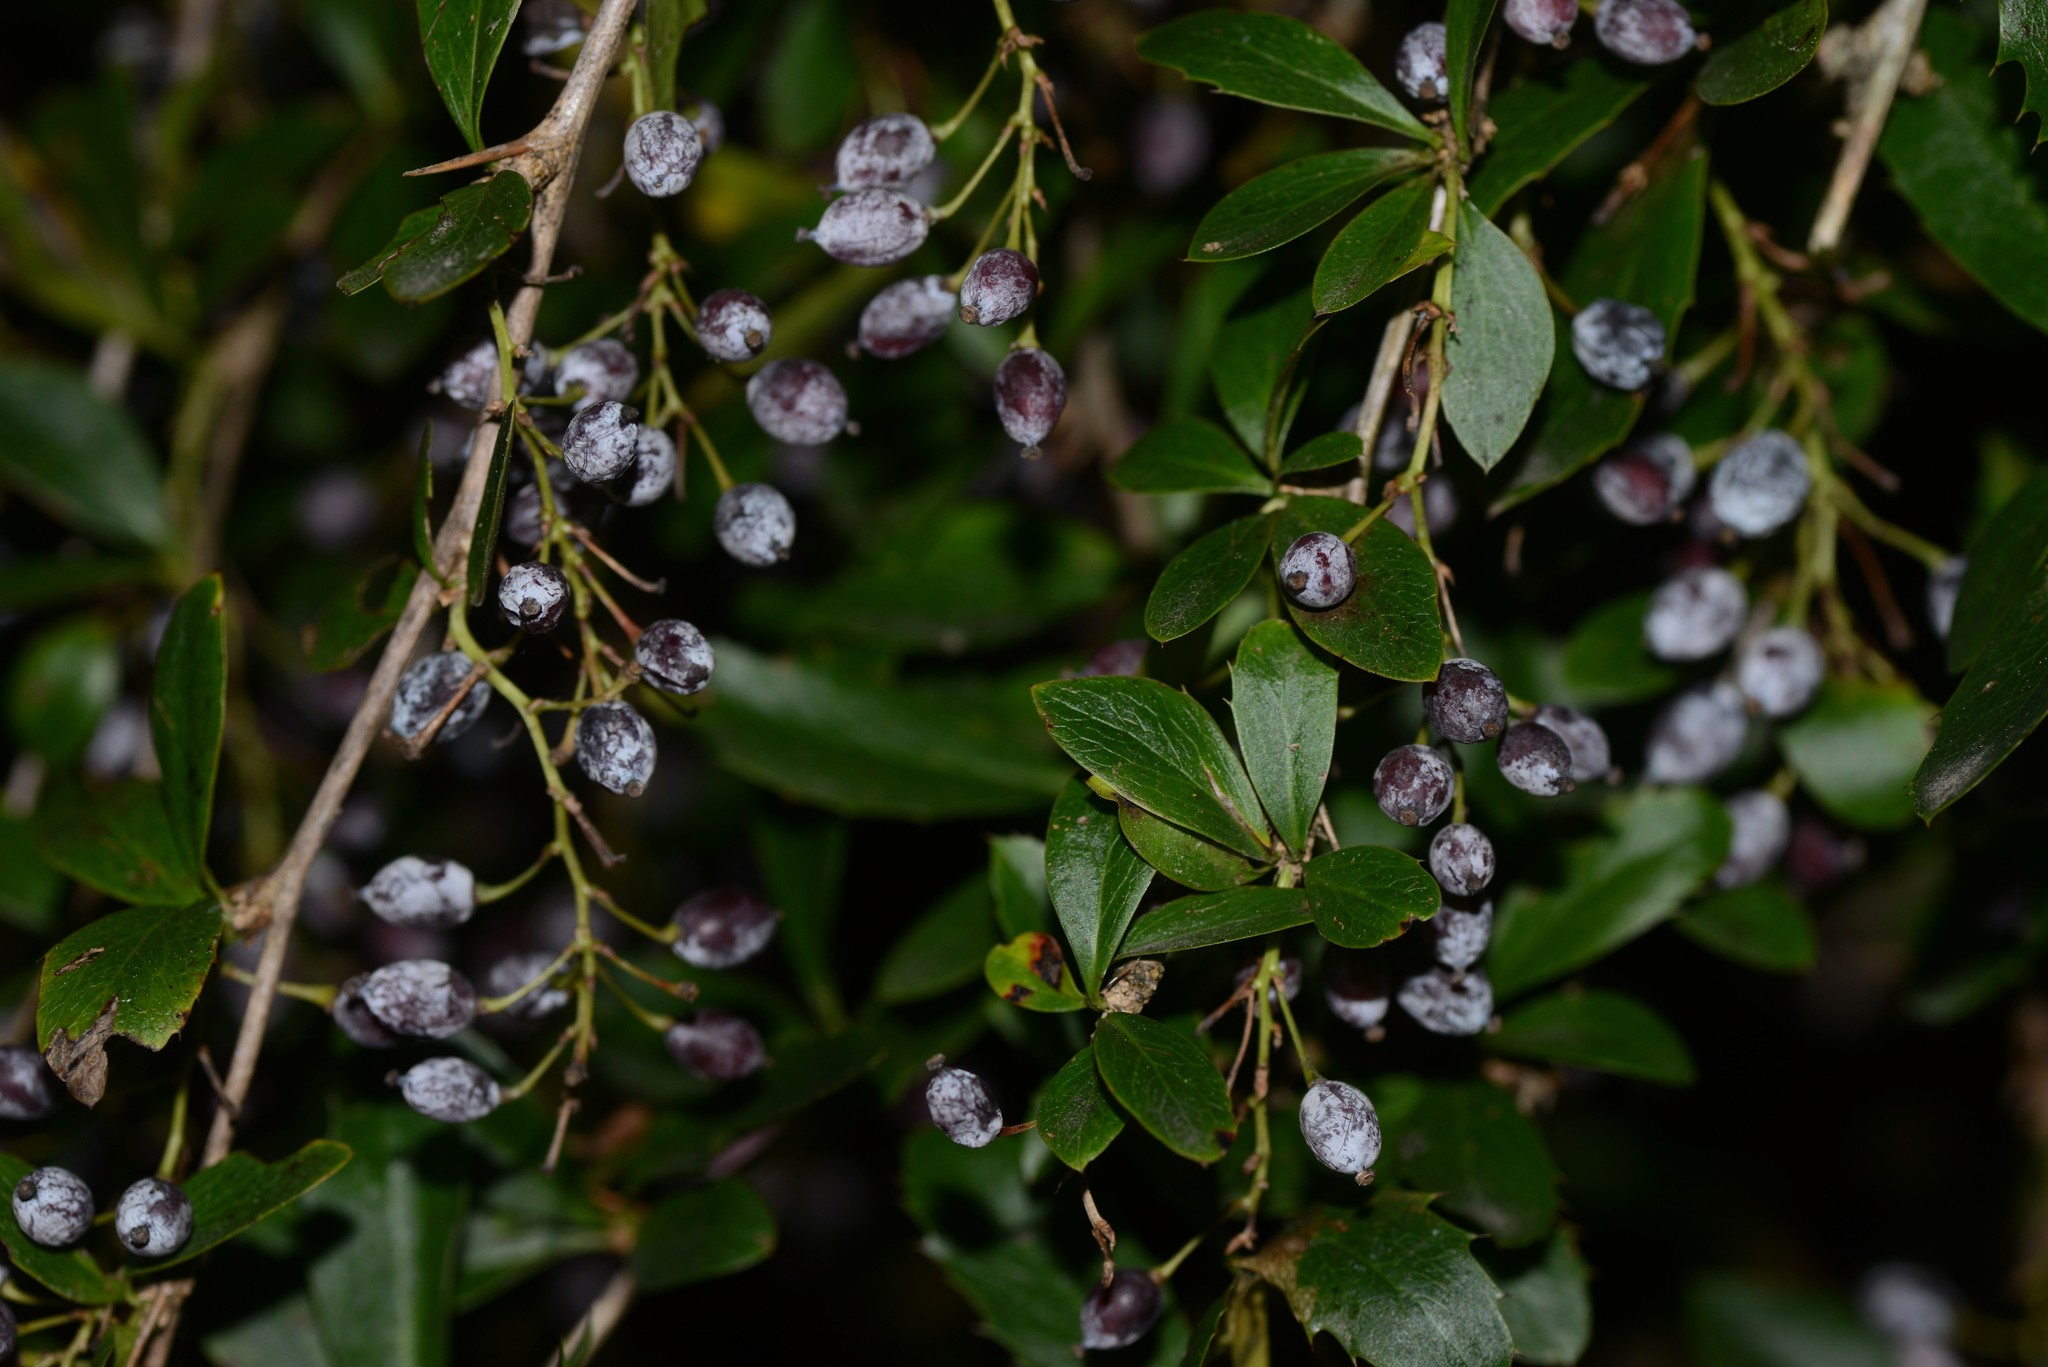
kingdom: Plantae
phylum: Tracheophyta
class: Magnoliopsida
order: Ranunculales
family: Berberidaceae
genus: Berberis
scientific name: Berberis glaucocarpa
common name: Great barberry
